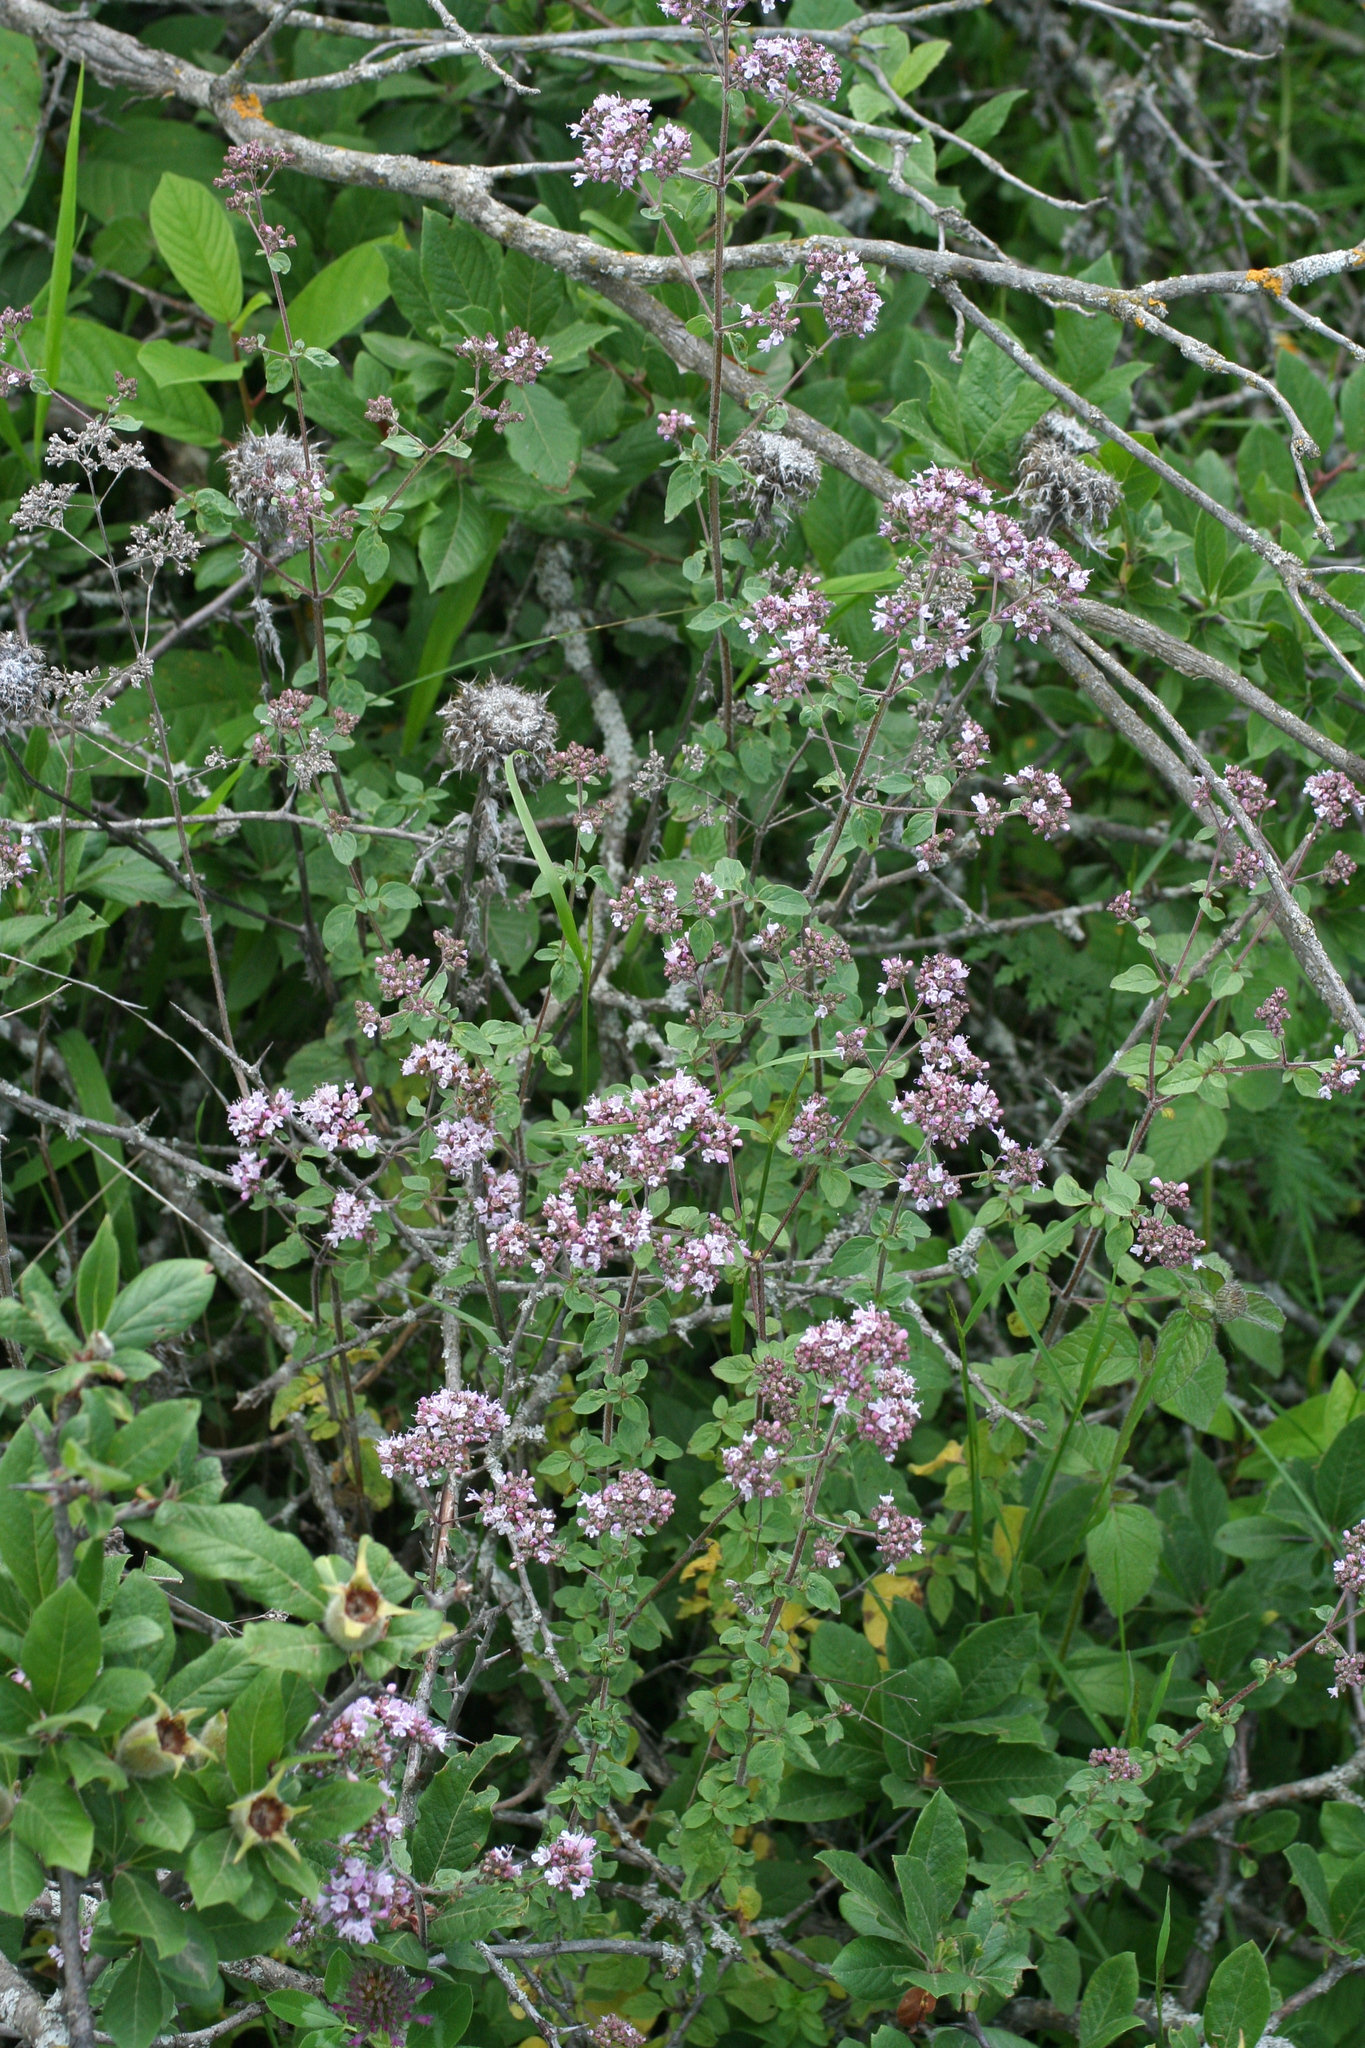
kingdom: Plantae
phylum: Tracheophyta
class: Magnoliopsida
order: Lamiales
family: Lamiaceae
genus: Origanum
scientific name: Origanum vulgare
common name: Wild marjoram
